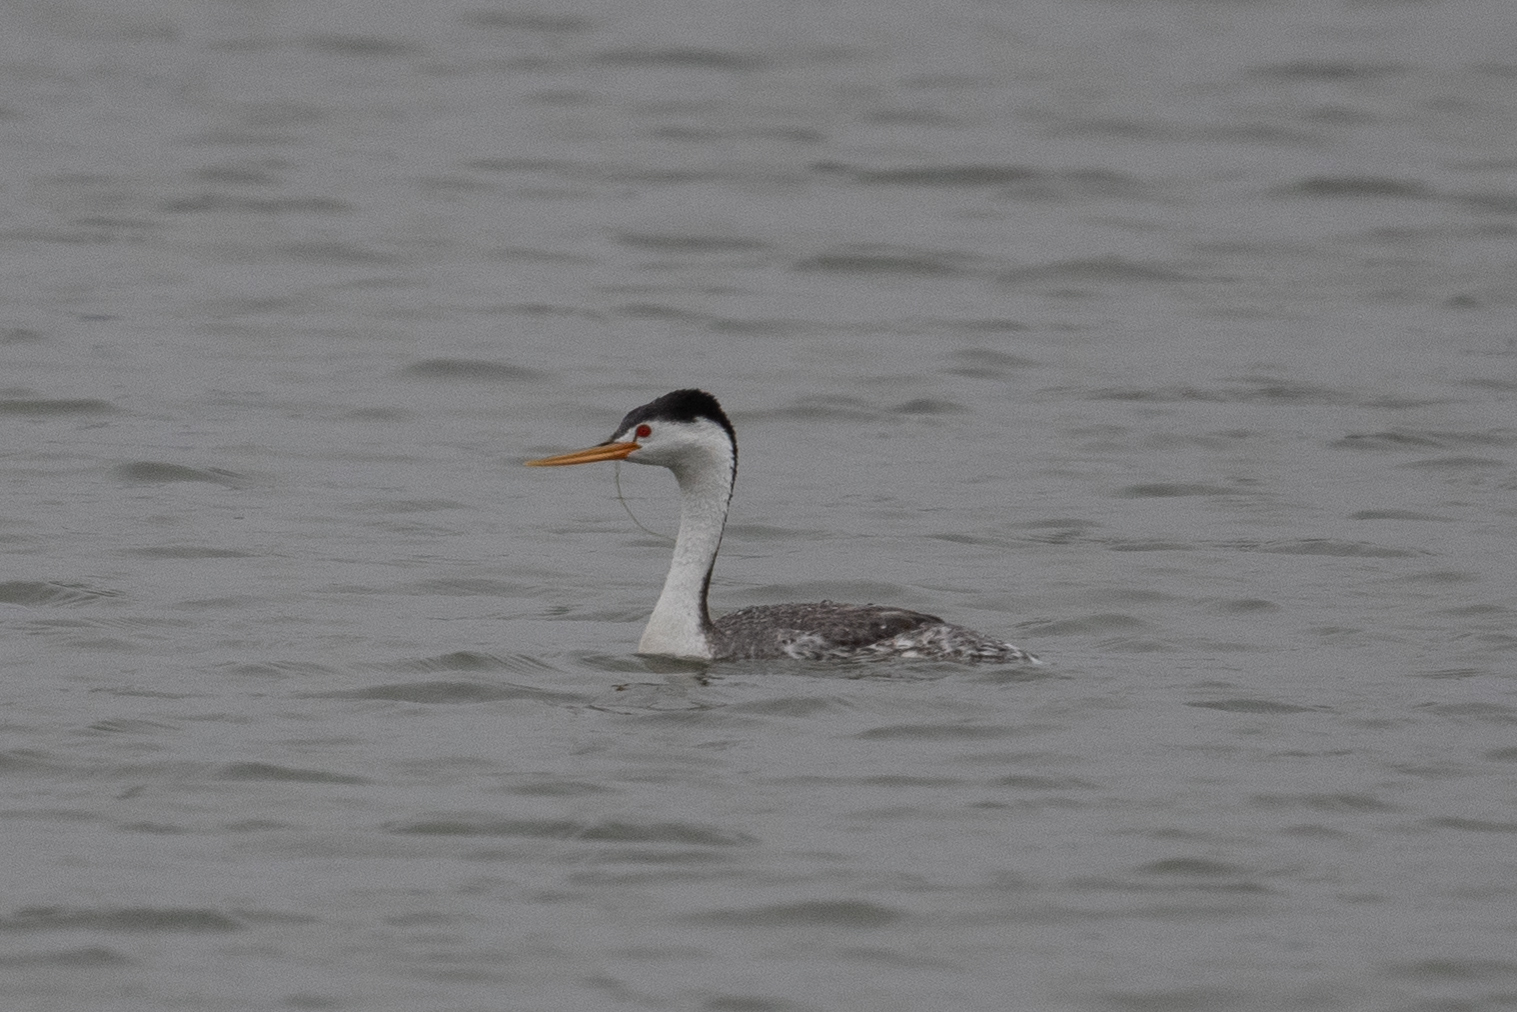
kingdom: Animalia
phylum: Chordata
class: Aves
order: Podicipediformes
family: Podicipedidae
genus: Aechmophorus
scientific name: Aechmophorus clarkii
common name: Clark's grebe
